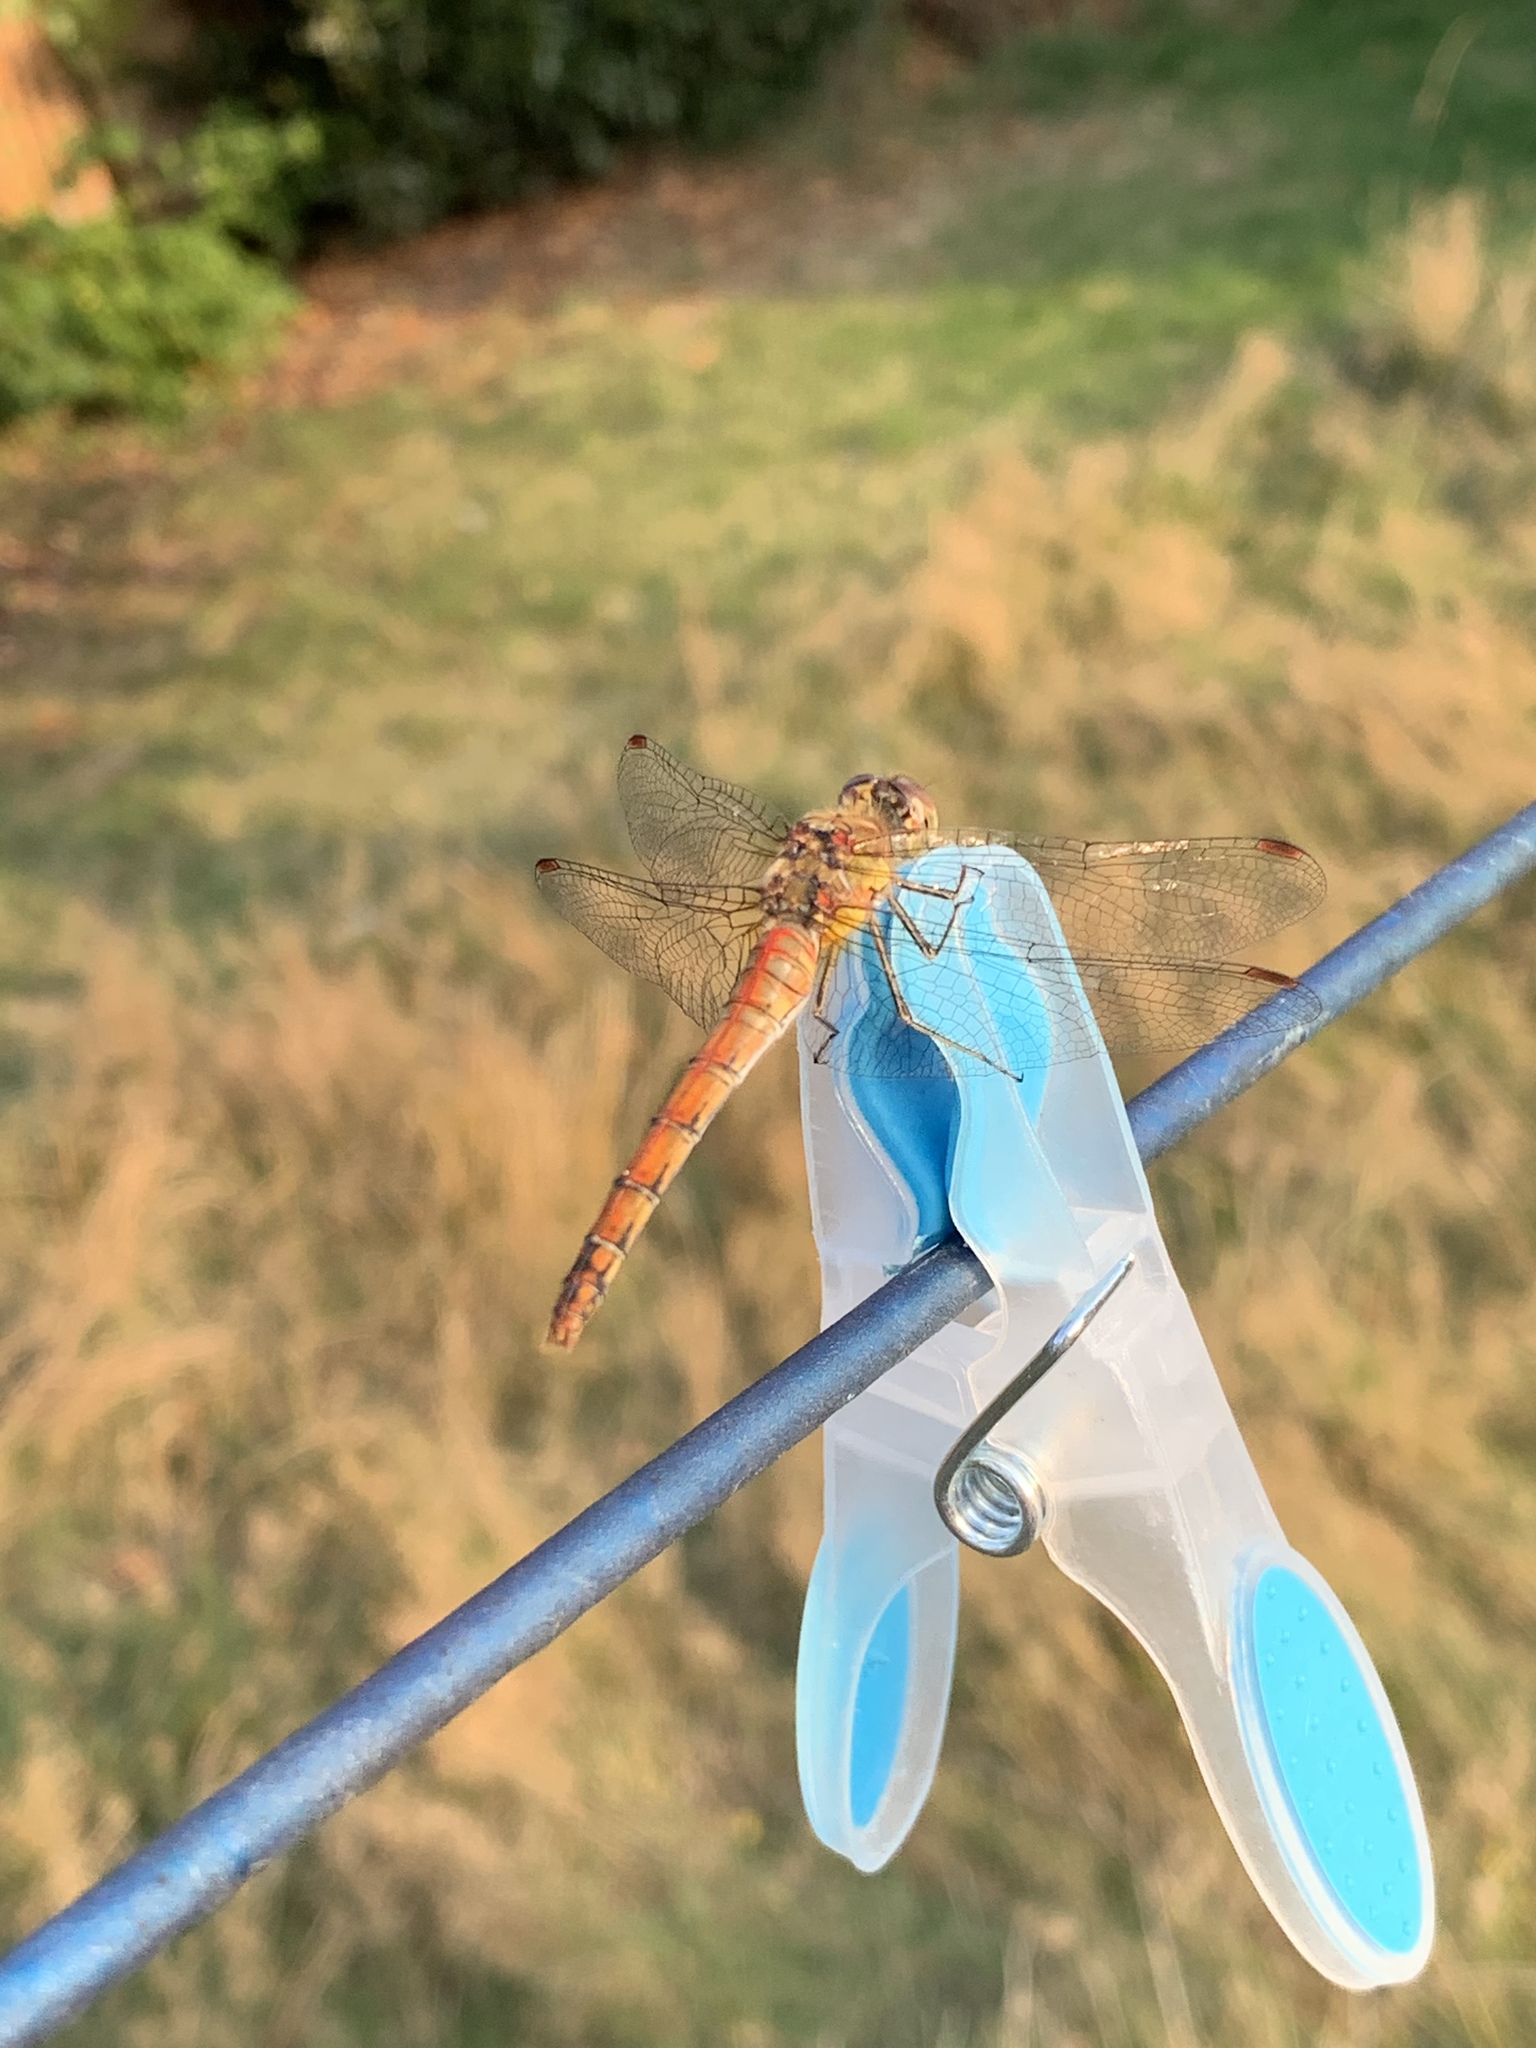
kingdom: Animalia
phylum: Arthropoda
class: Insecta
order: Odonata
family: Libellulidae
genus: Sympetrum
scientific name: Sympetrum striolatum
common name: Common darter
